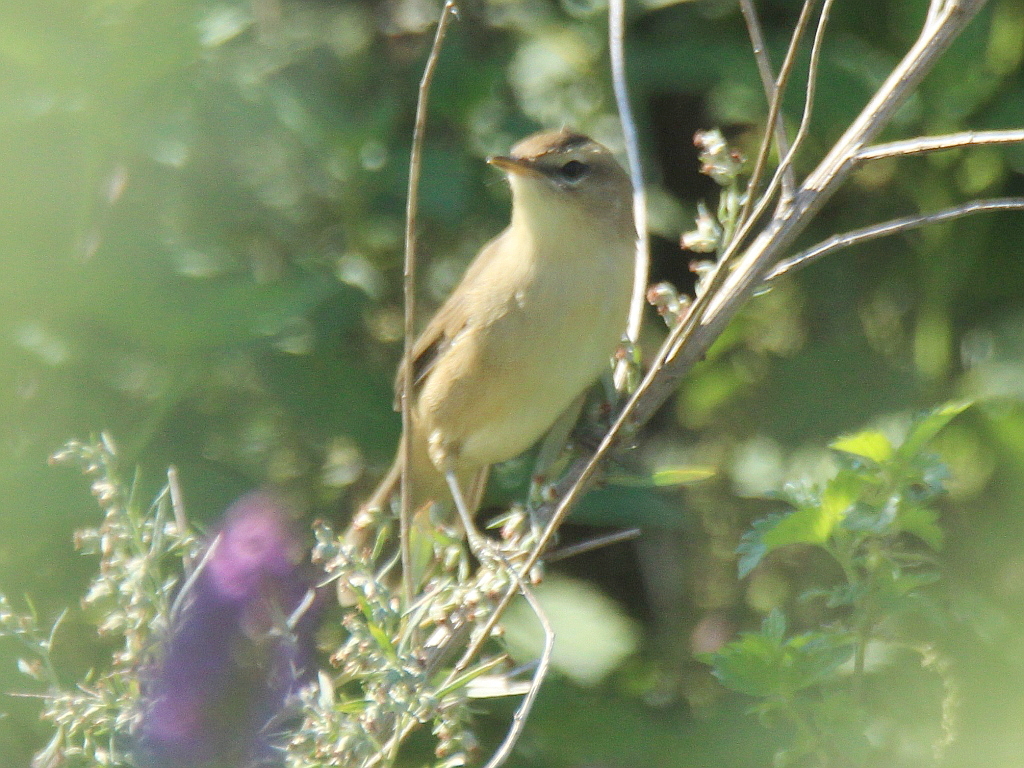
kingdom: Animalia
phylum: Chordata
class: Aves
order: Passeriformes
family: Acrocephalidae
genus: Acrocephalus
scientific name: Acrocephalus bistrigiceps
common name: Black-browed reed warbler
